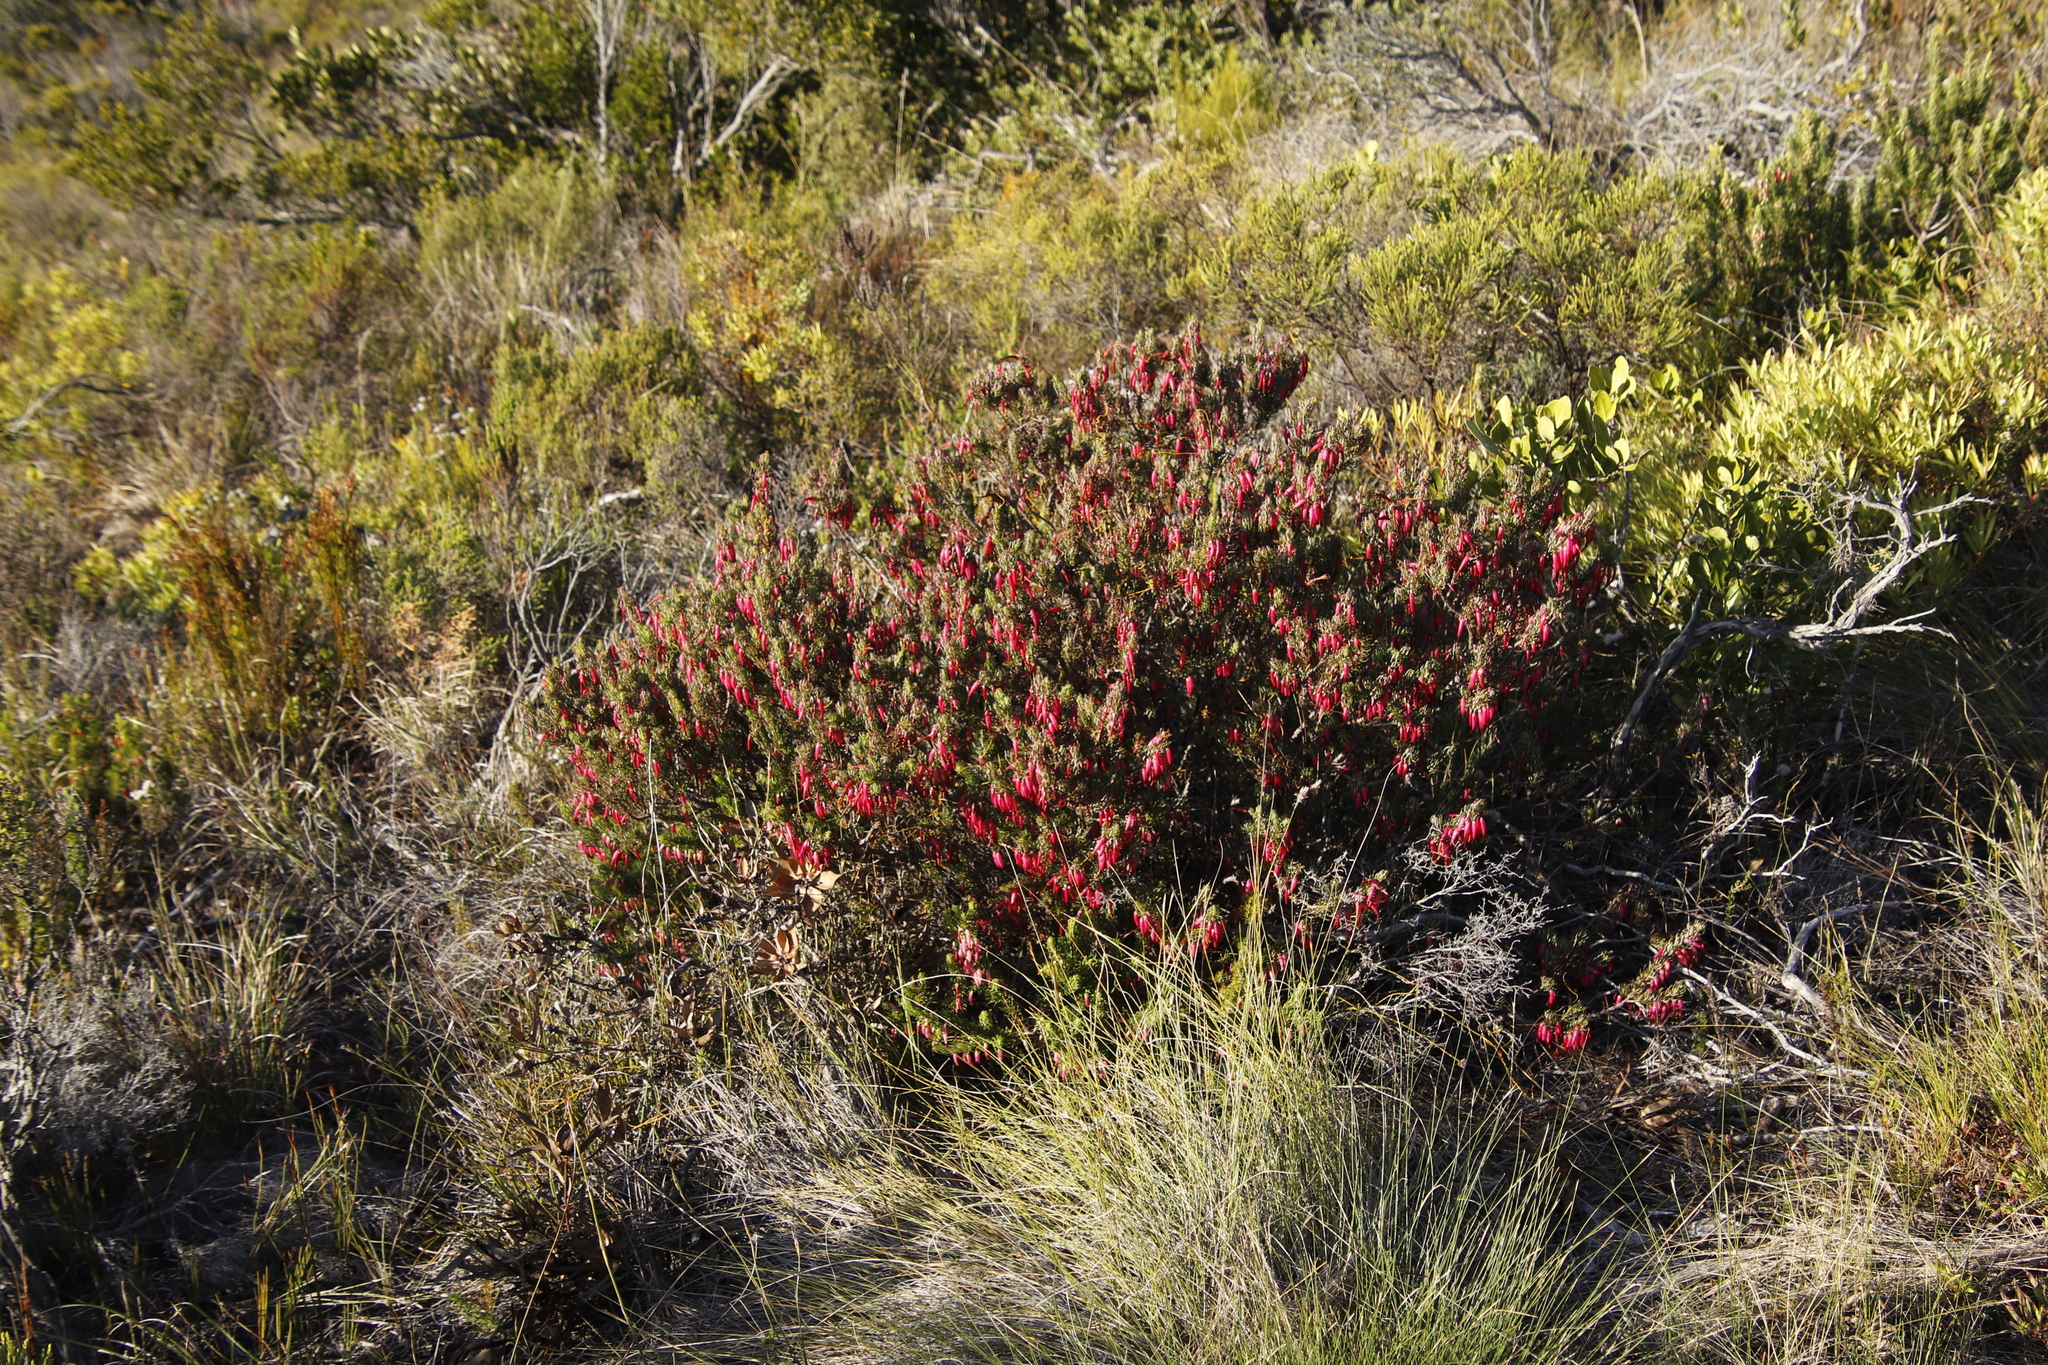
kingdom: Plantae
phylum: Tracheophyta
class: Magnoliopsida
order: Ericales
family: Ericaceae
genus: Erica
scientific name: Erica plukenetii
